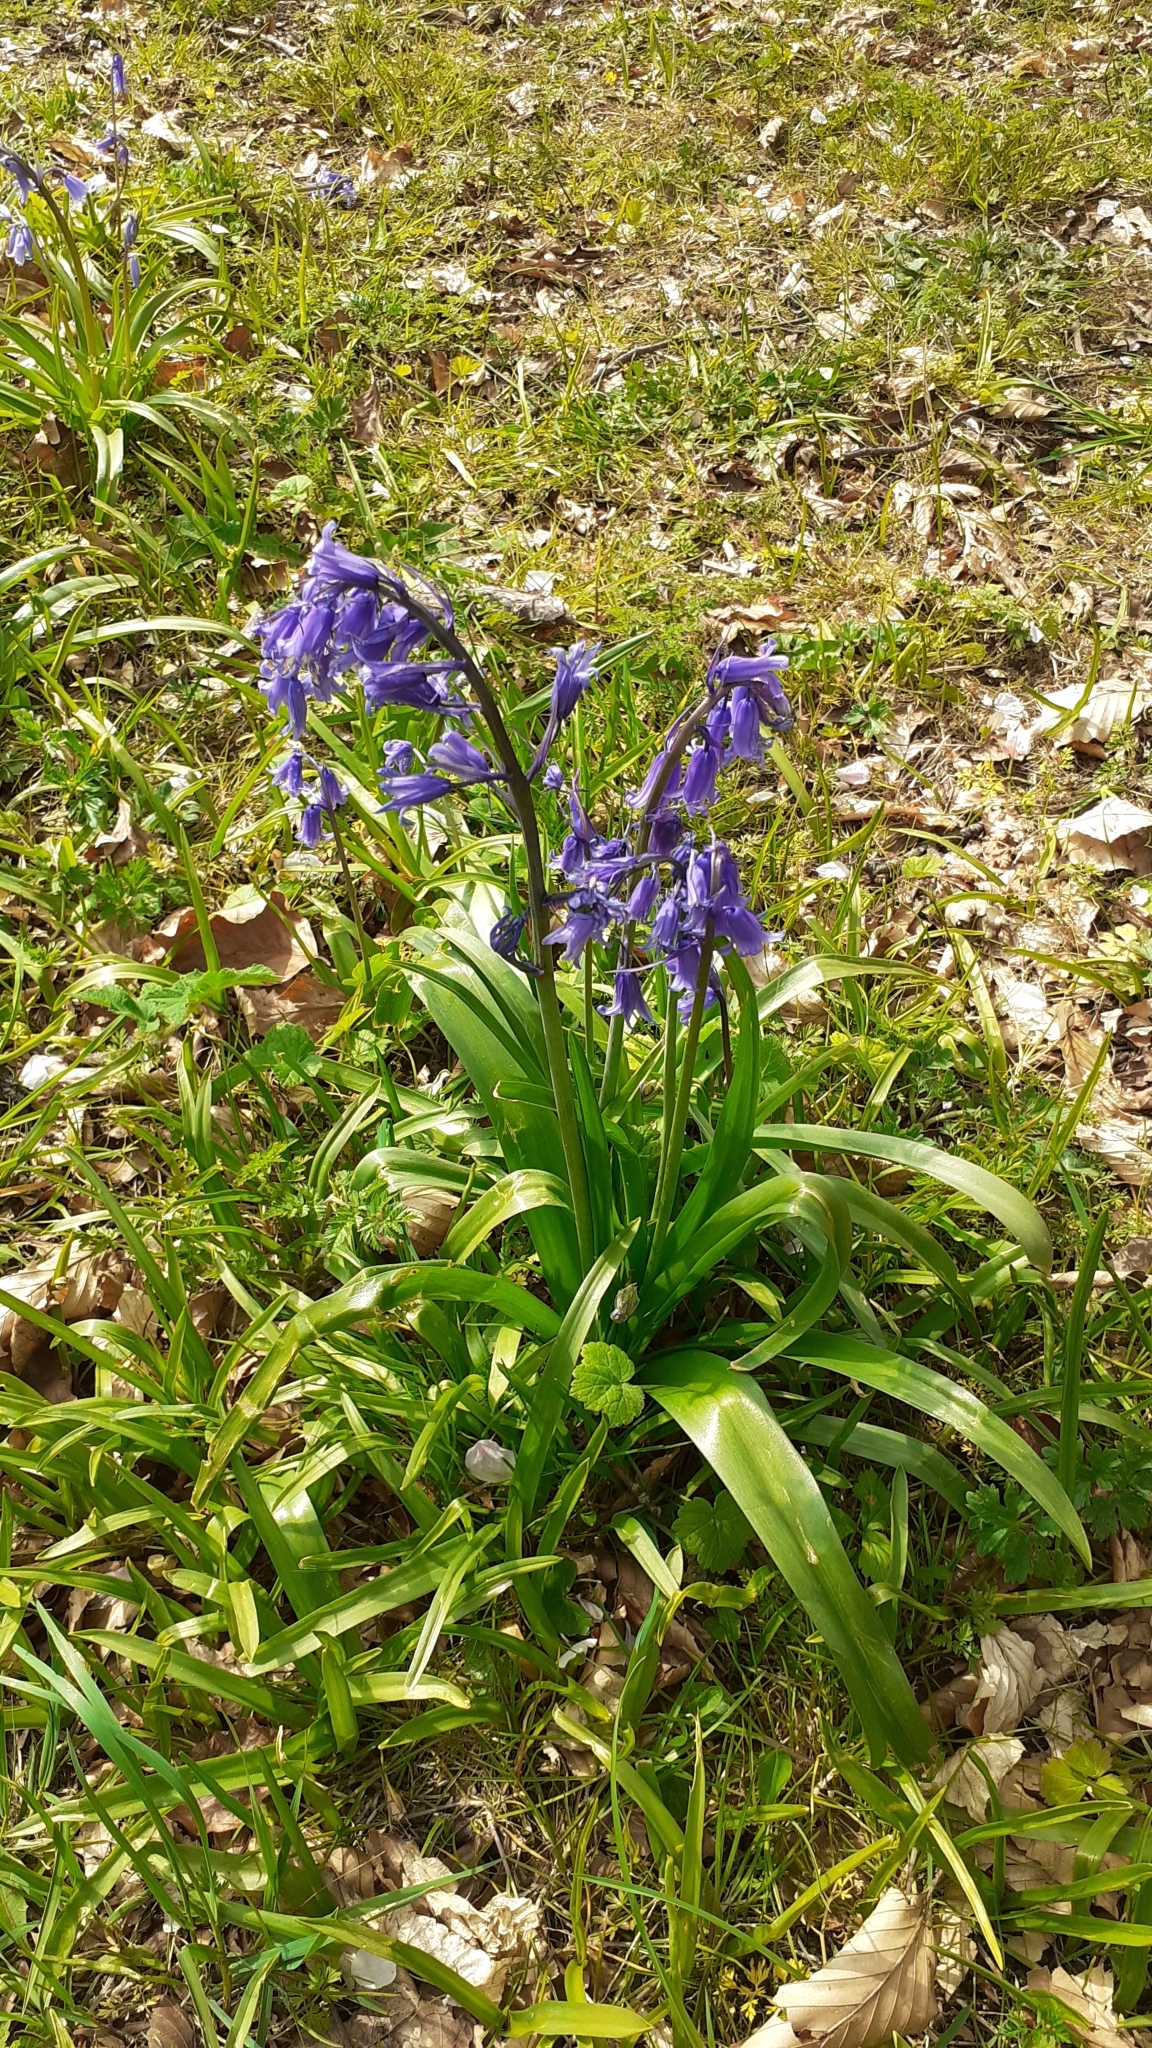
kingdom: Plantae
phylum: Tracheophyta
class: Liliopsida
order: Asparagales
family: Asparagaceae
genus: Hyacinthoides
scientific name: Hyacinthoides non-scripta
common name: Bluebell
